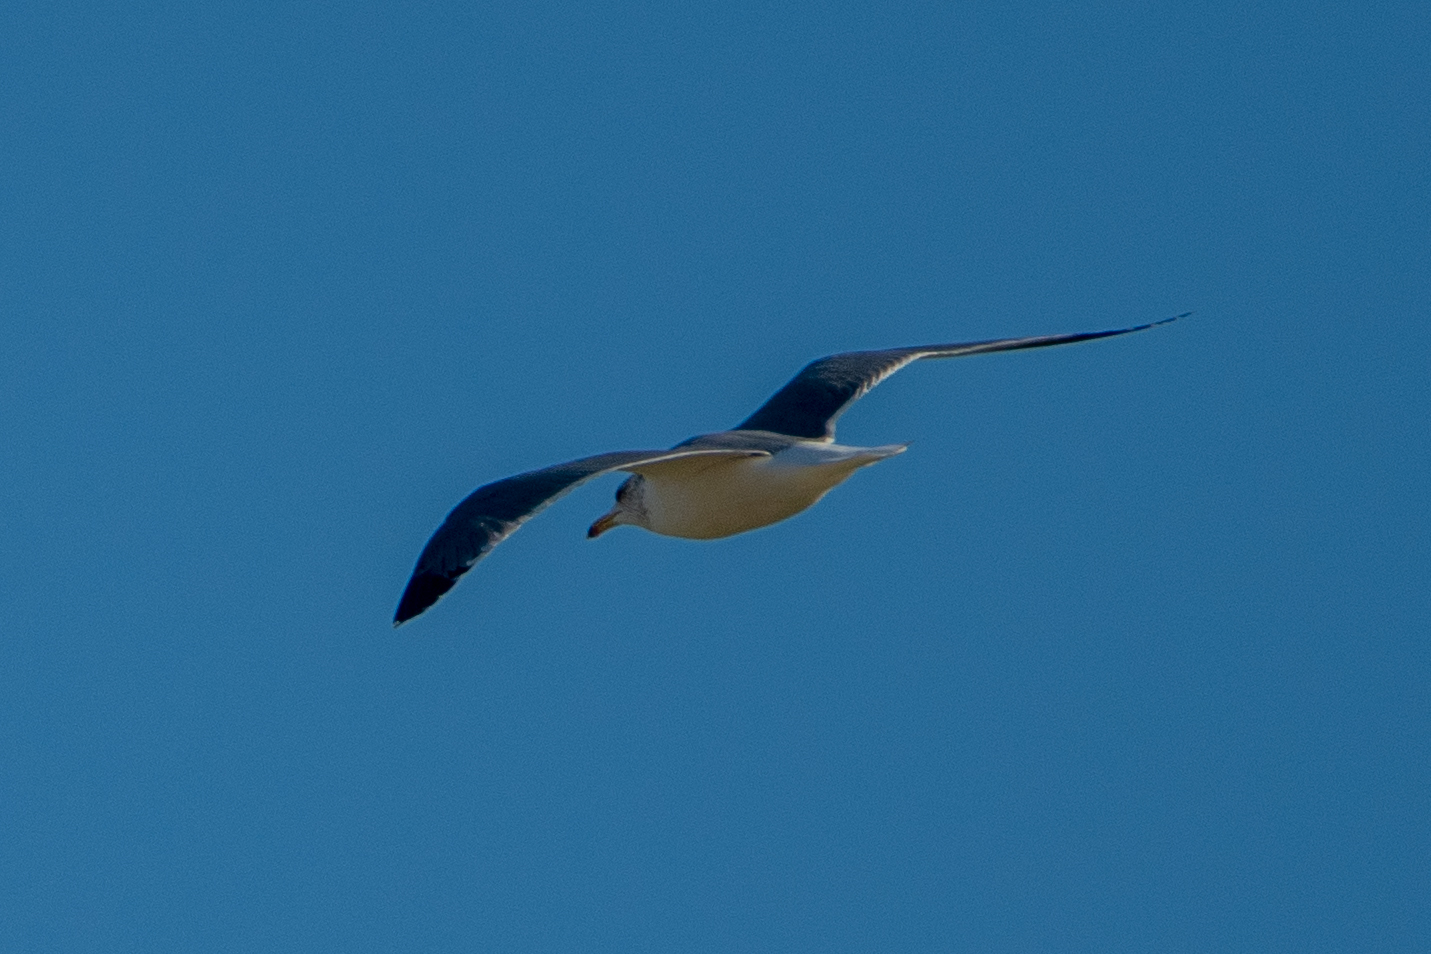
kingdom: Animalia
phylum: Chordata
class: Aves
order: Charadriiformes
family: Laridae
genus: Larus
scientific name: Larus californicus
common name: California gull
